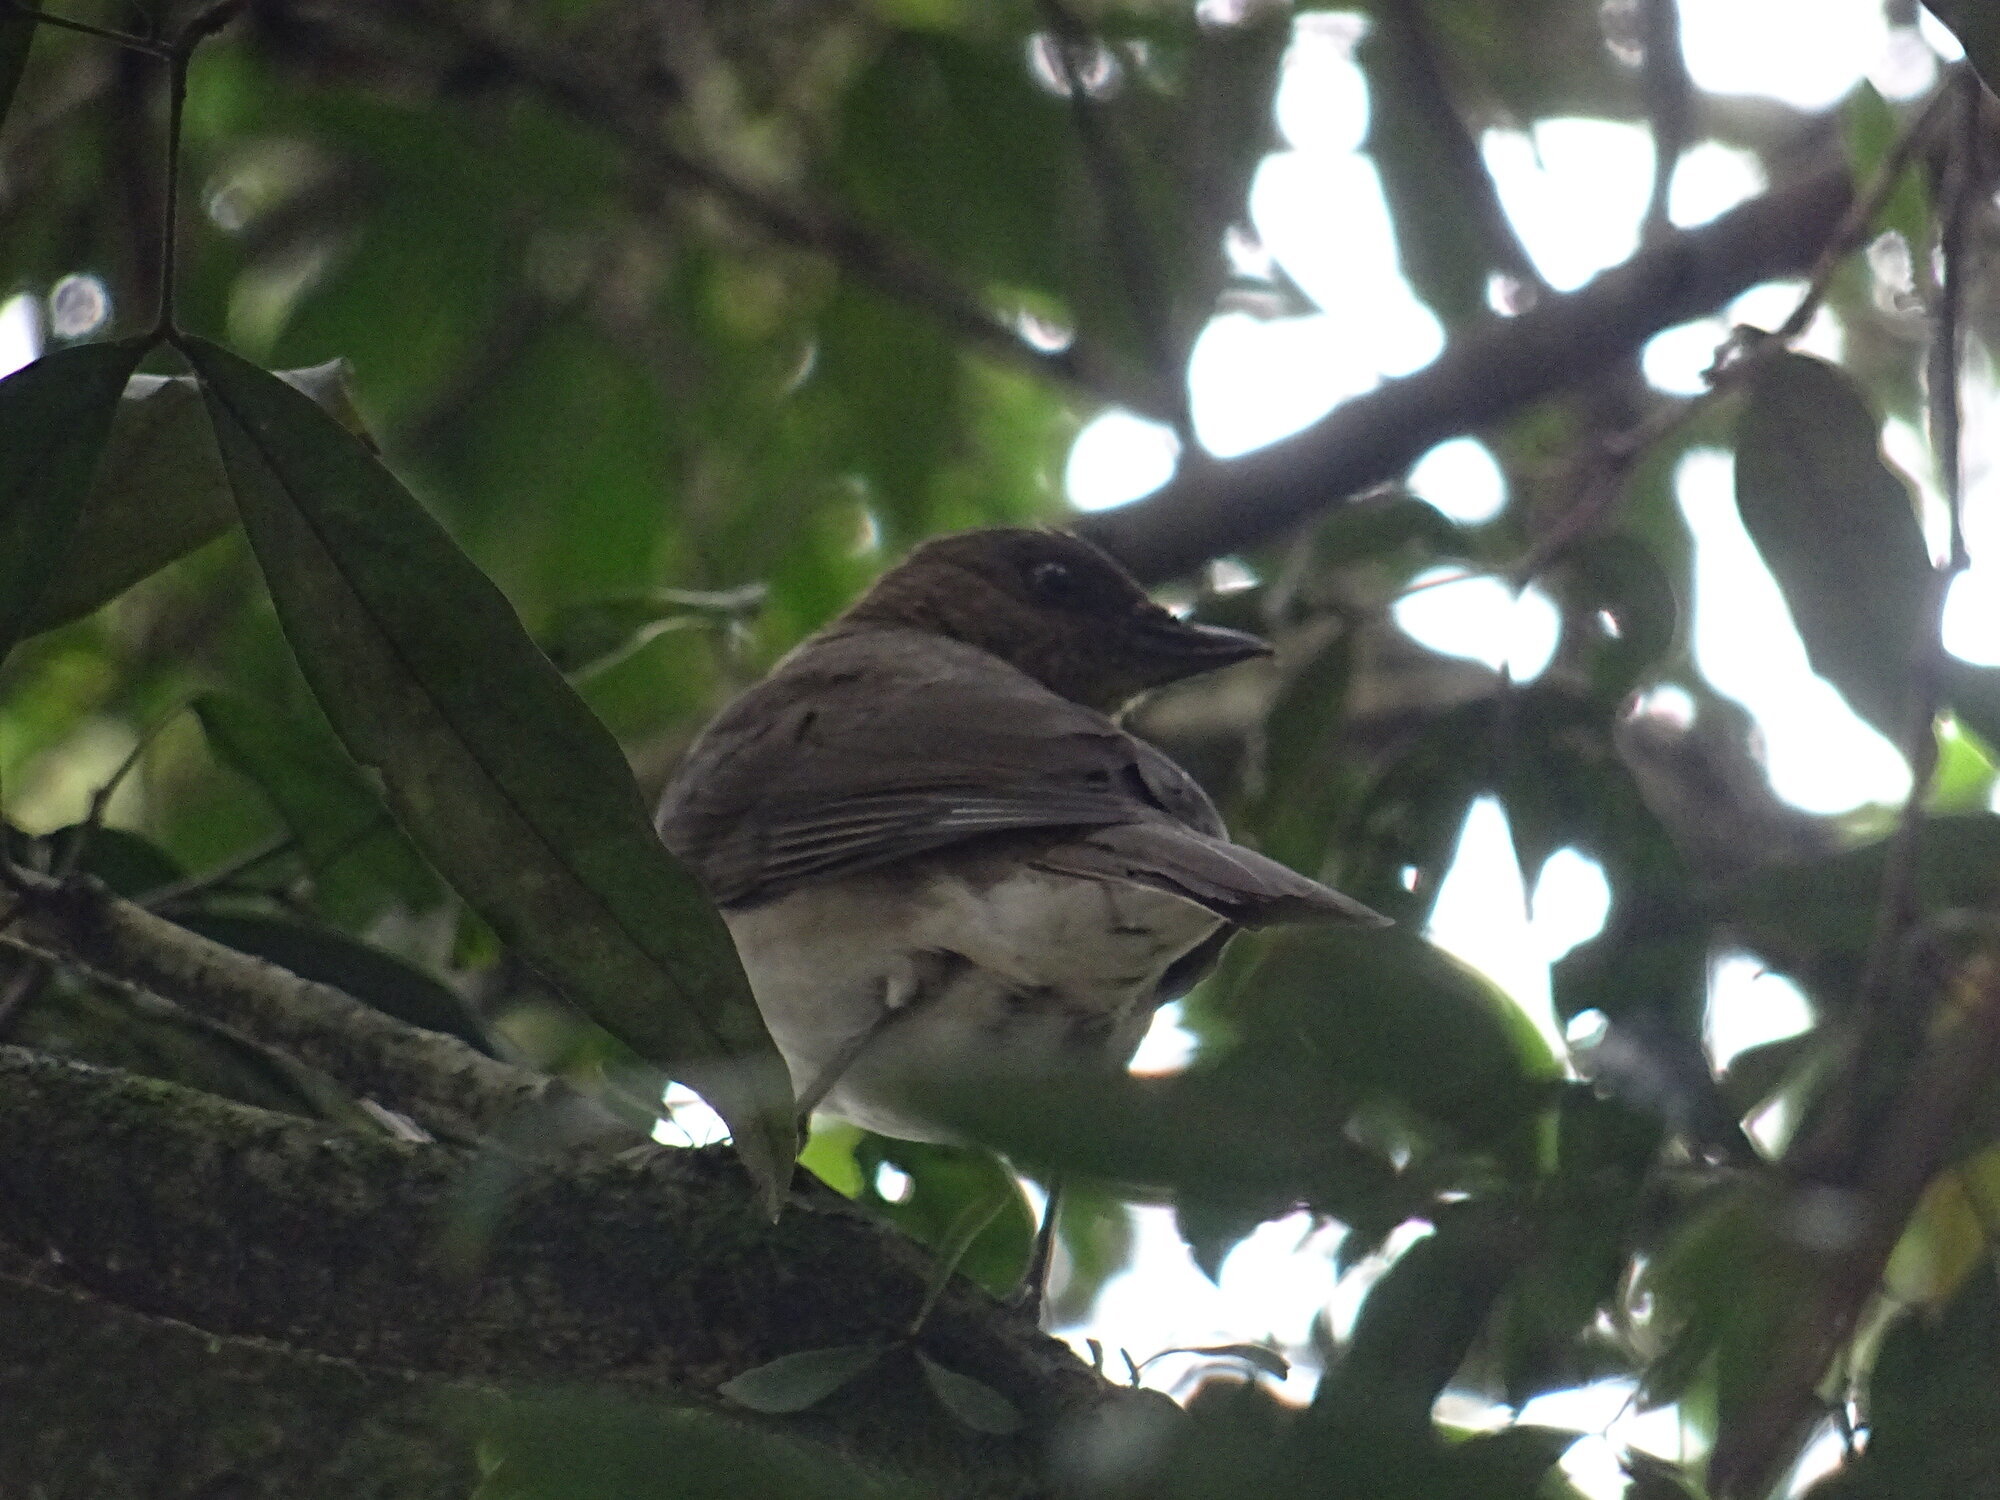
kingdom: Animalia
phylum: Chordata
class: Aves
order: Passeriformes
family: Turdidae
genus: Turdus
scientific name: Turdus ignobilis
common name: Black-billed thrush
